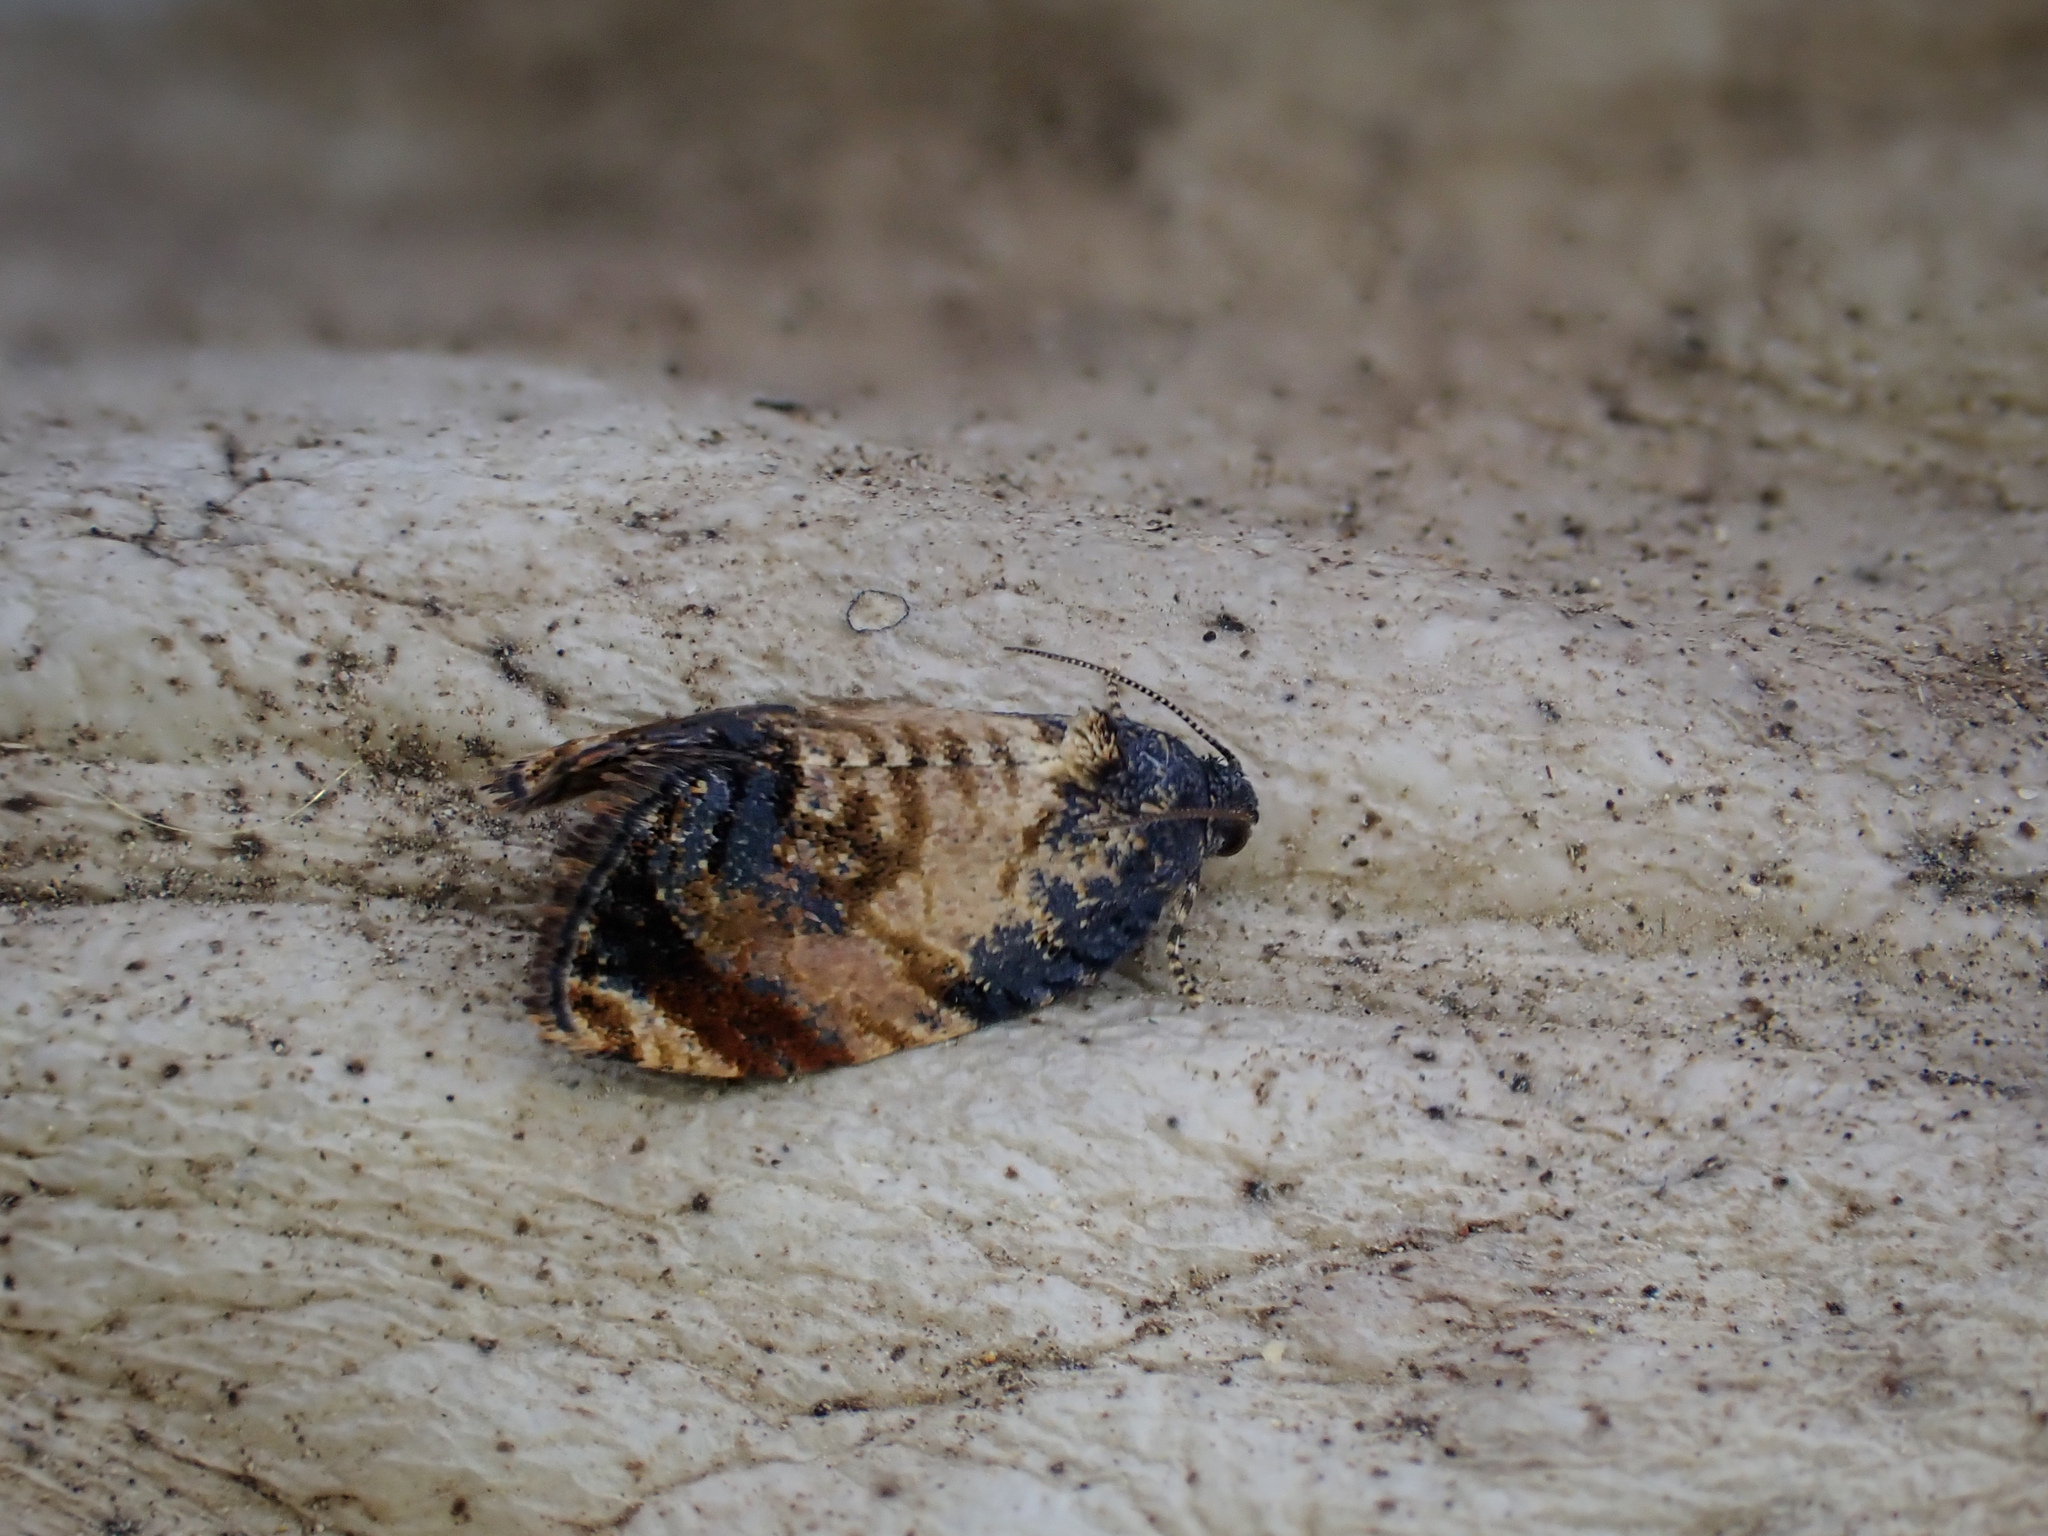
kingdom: Animalia
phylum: Arthropoda
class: Insecta
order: Lepidoptera
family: Tortricidae
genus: Philocryptica
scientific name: Philocryptica polypodii
